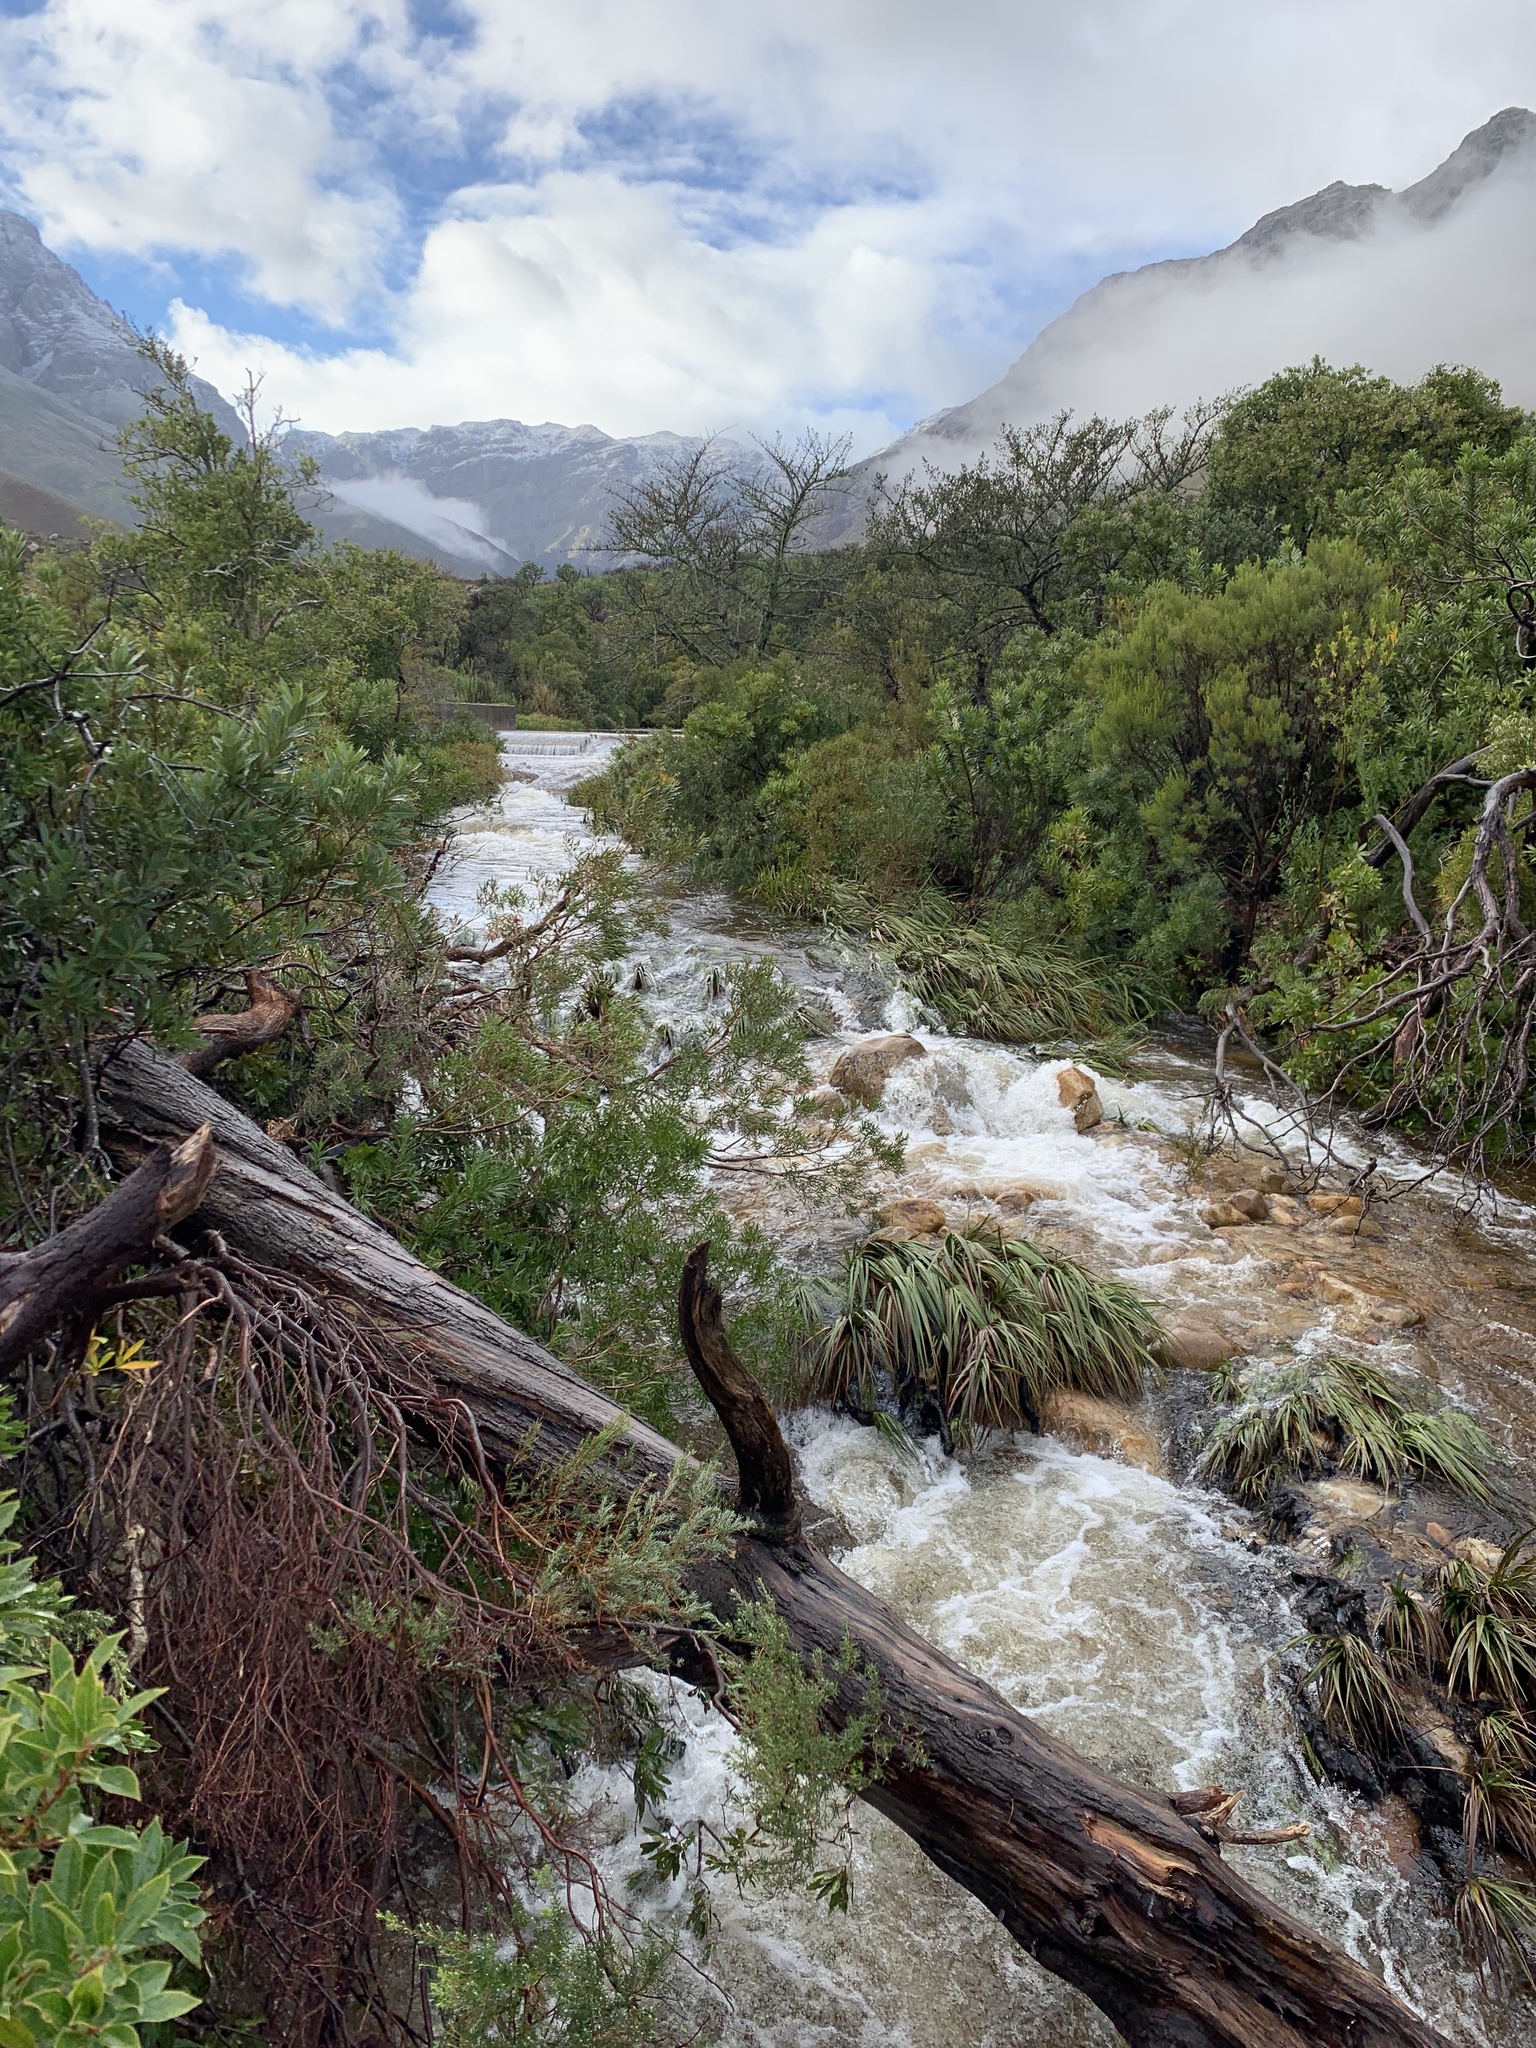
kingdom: Plantae
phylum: Tracheophyta
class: Liliopsida
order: Poales
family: Thurniaceae
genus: Prionium
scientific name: Prionium serratum
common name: Palmiet
